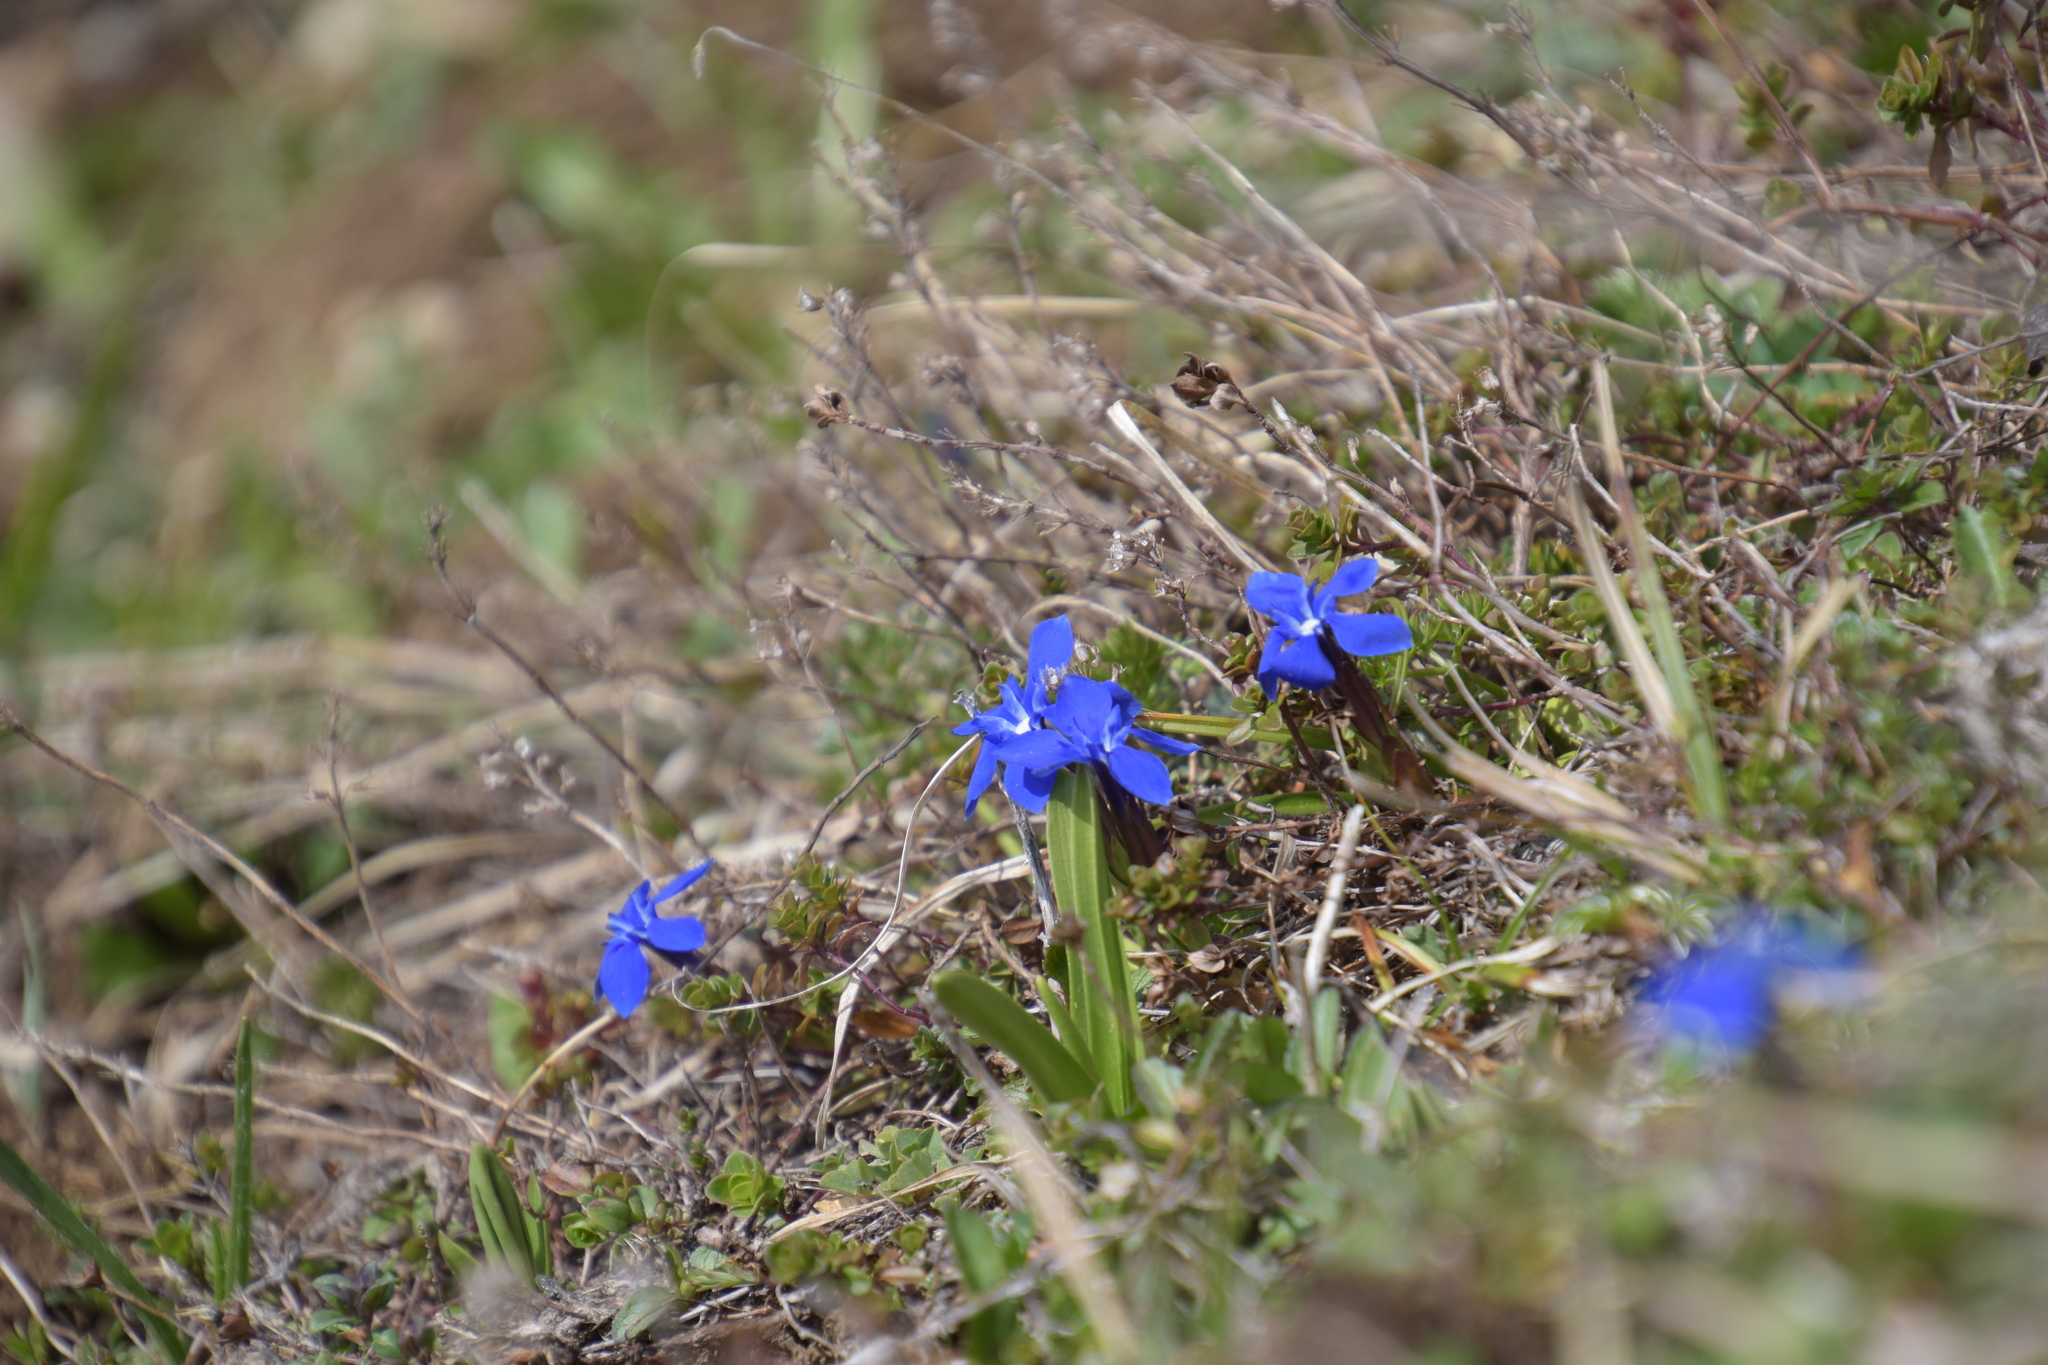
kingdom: Plantae
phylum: Tracheophyta
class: Magnoliopsida
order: Gentianales
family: Gentianaceae
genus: Gentiana
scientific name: Gentiana verna
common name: Spring gentian
